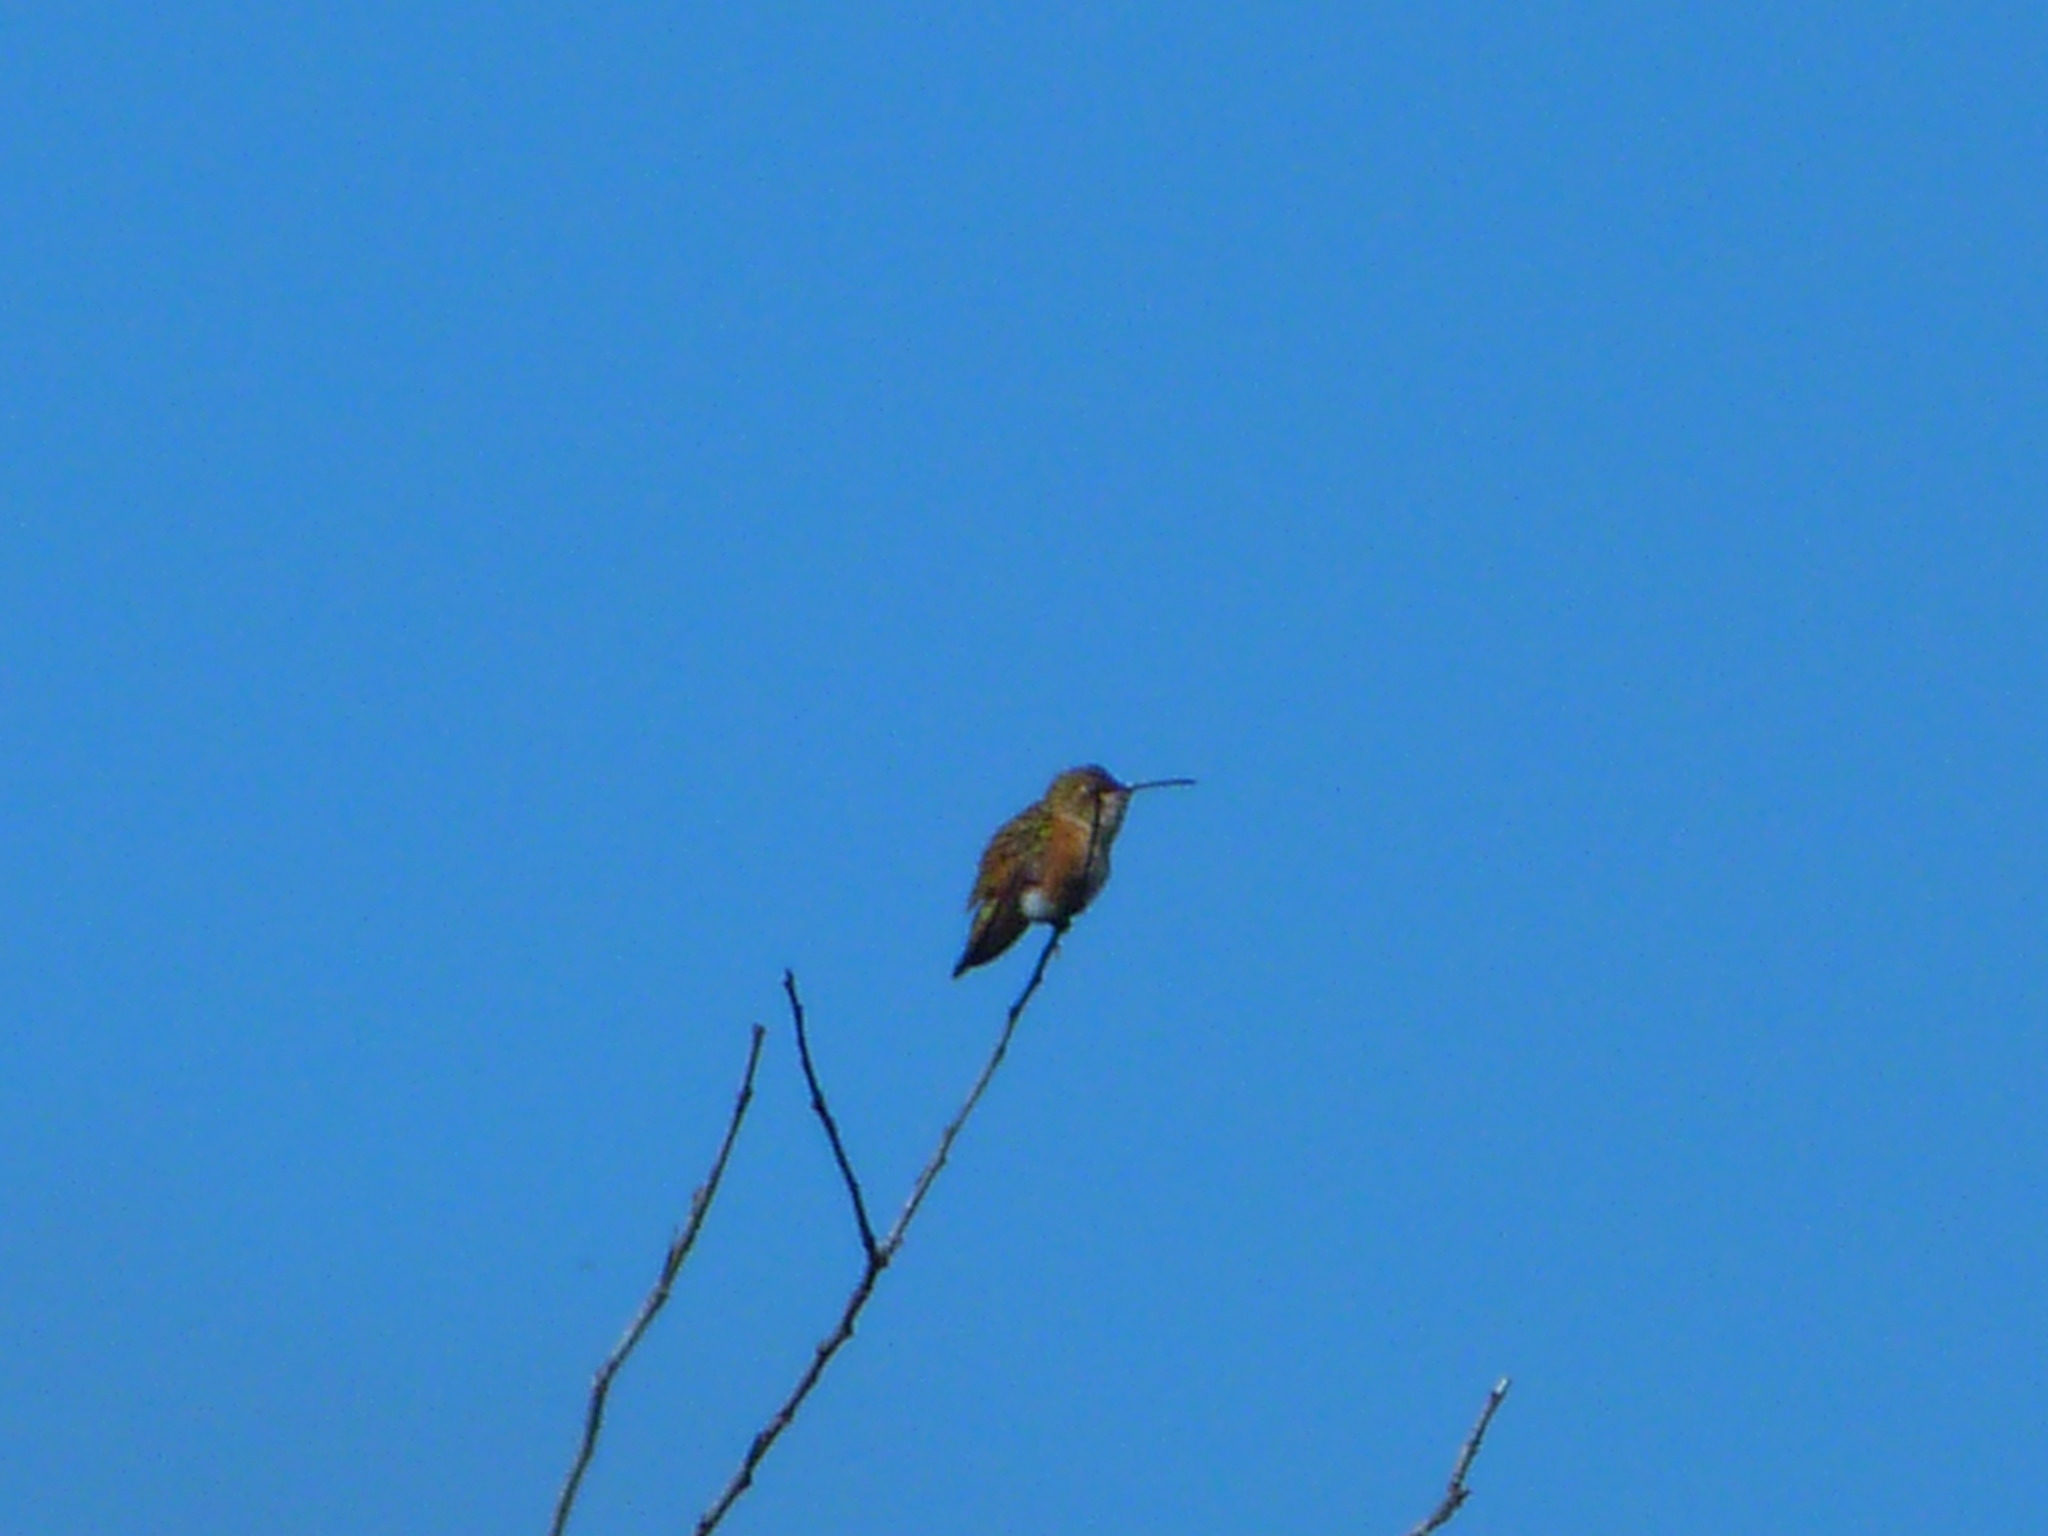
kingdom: Animalia
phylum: Chordata
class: Aves
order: Apodiformes
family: Trochilidae
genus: Selasphorus
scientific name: Selasphorus
